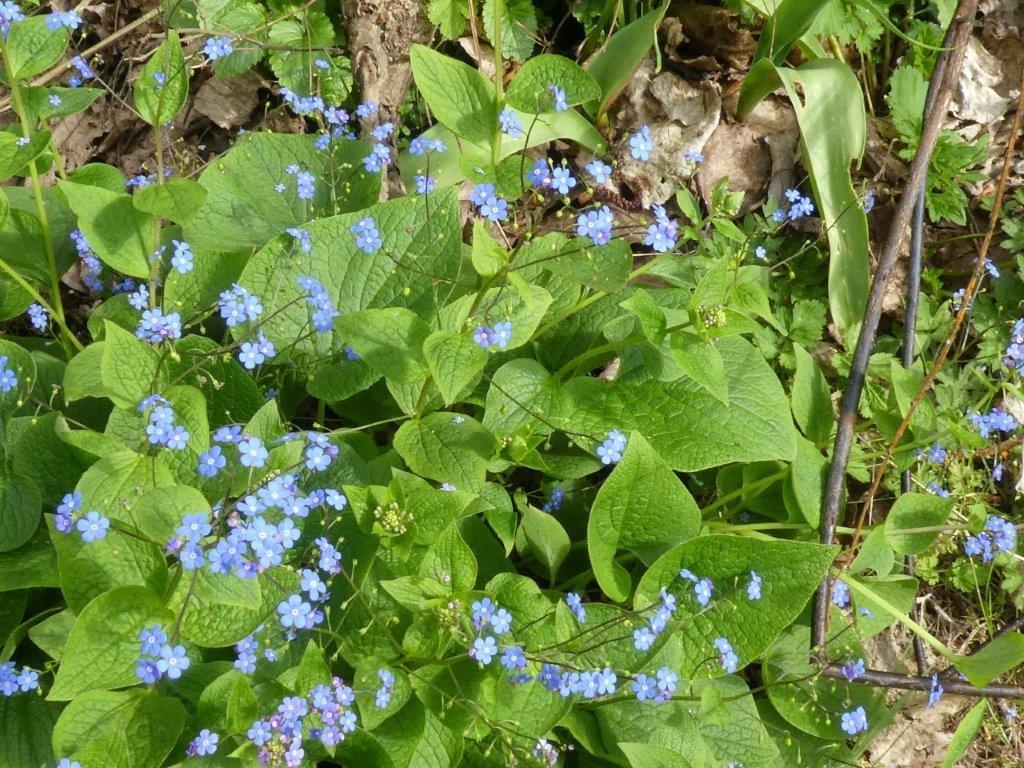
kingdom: Plantae
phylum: Tracheophyta
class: Magnoliopsida
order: Boraginales
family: Boraginaceae
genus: Brunnera
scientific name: Brunnera macrophylla
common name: Great forget-me-not
